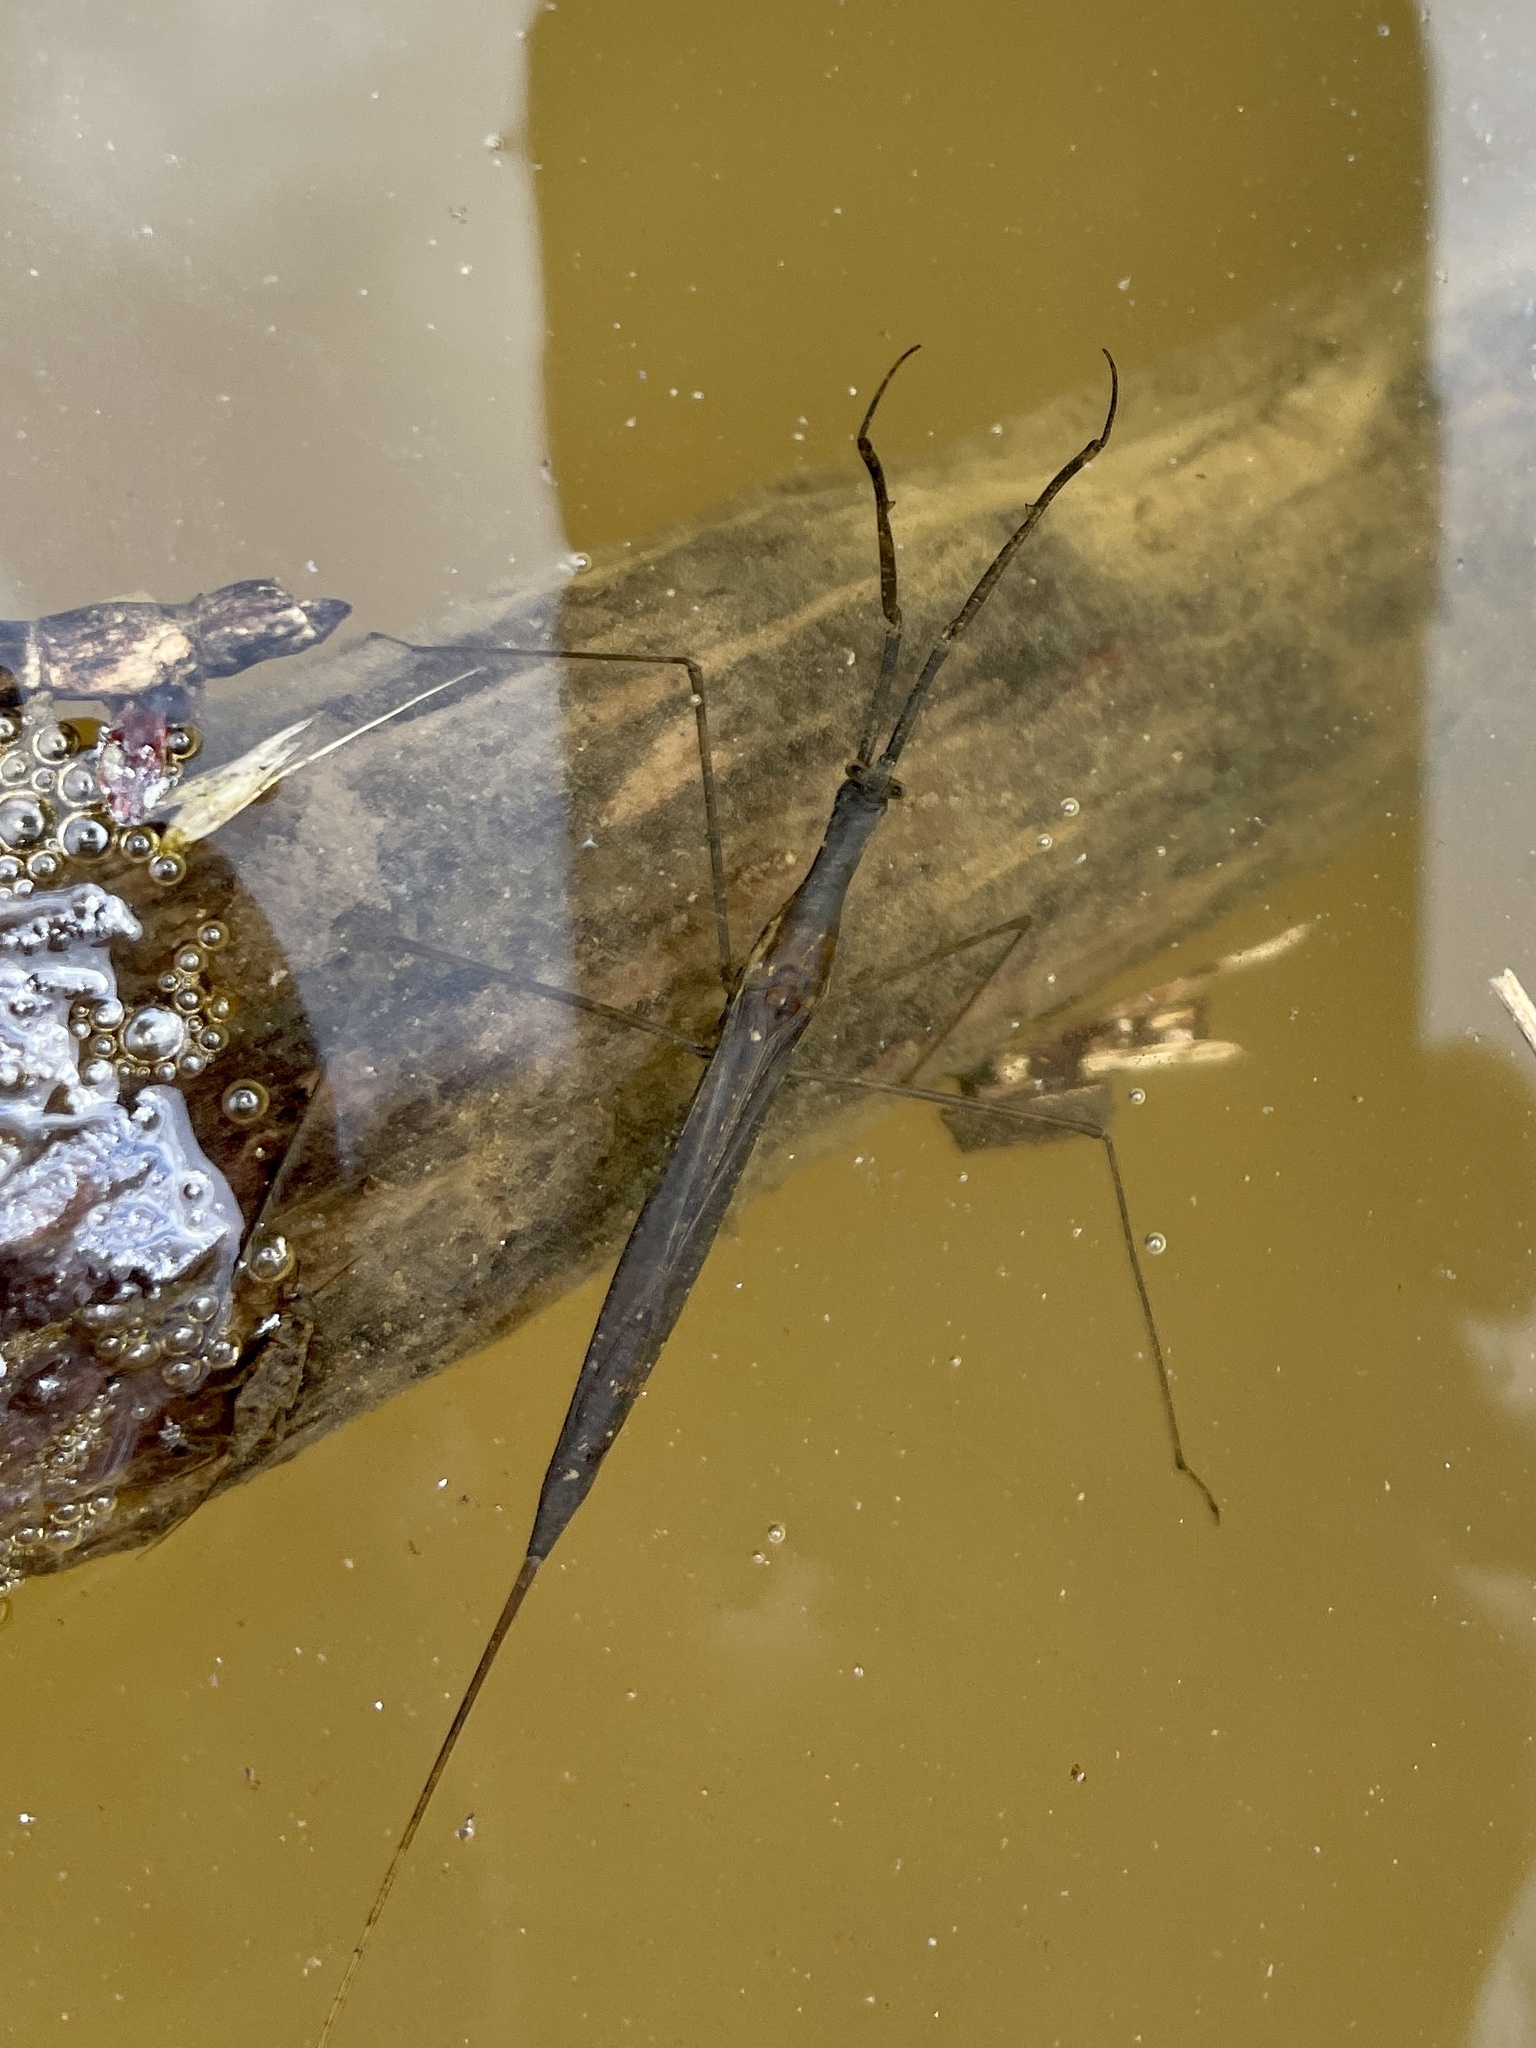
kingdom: Animalia
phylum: Arthropoda
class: Insecta
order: Hemiptera
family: Nepidae
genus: Ranatra
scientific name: Ranatra linearis
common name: Water stick insect
